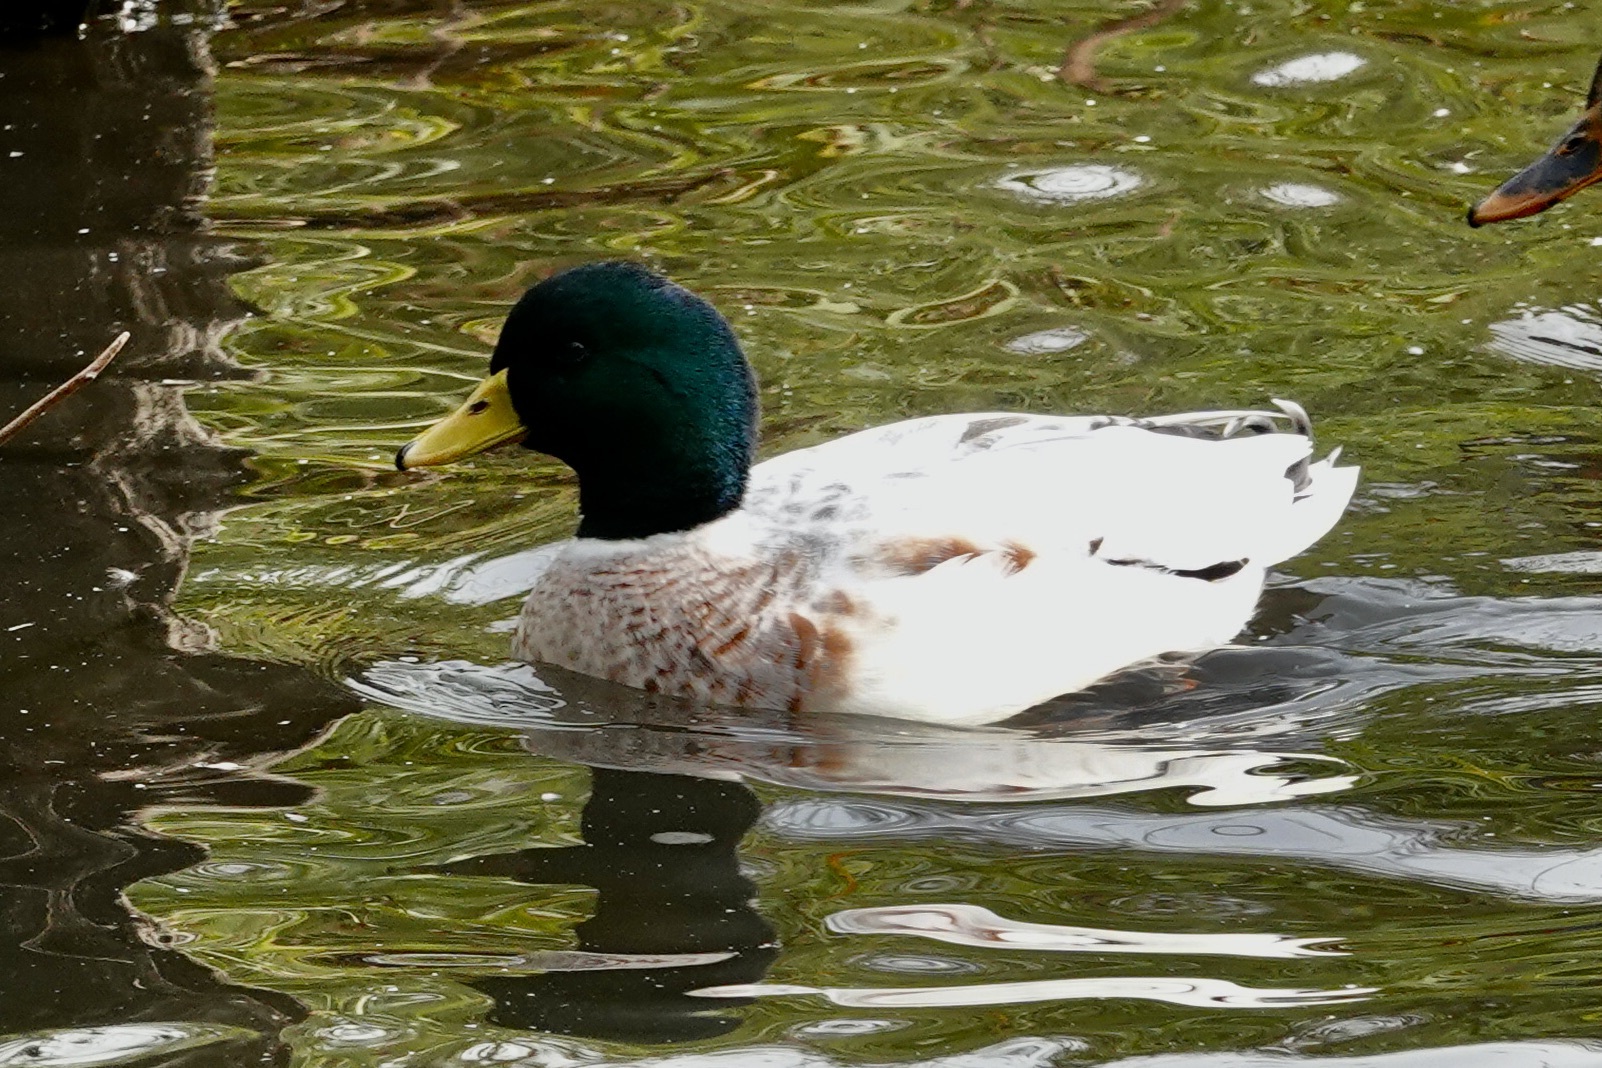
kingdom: Animalia
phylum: Chordata
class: Aves
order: Anseriformes
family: Anatidae
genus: Anas
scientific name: Anas platyrhynchos
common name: Mallard
